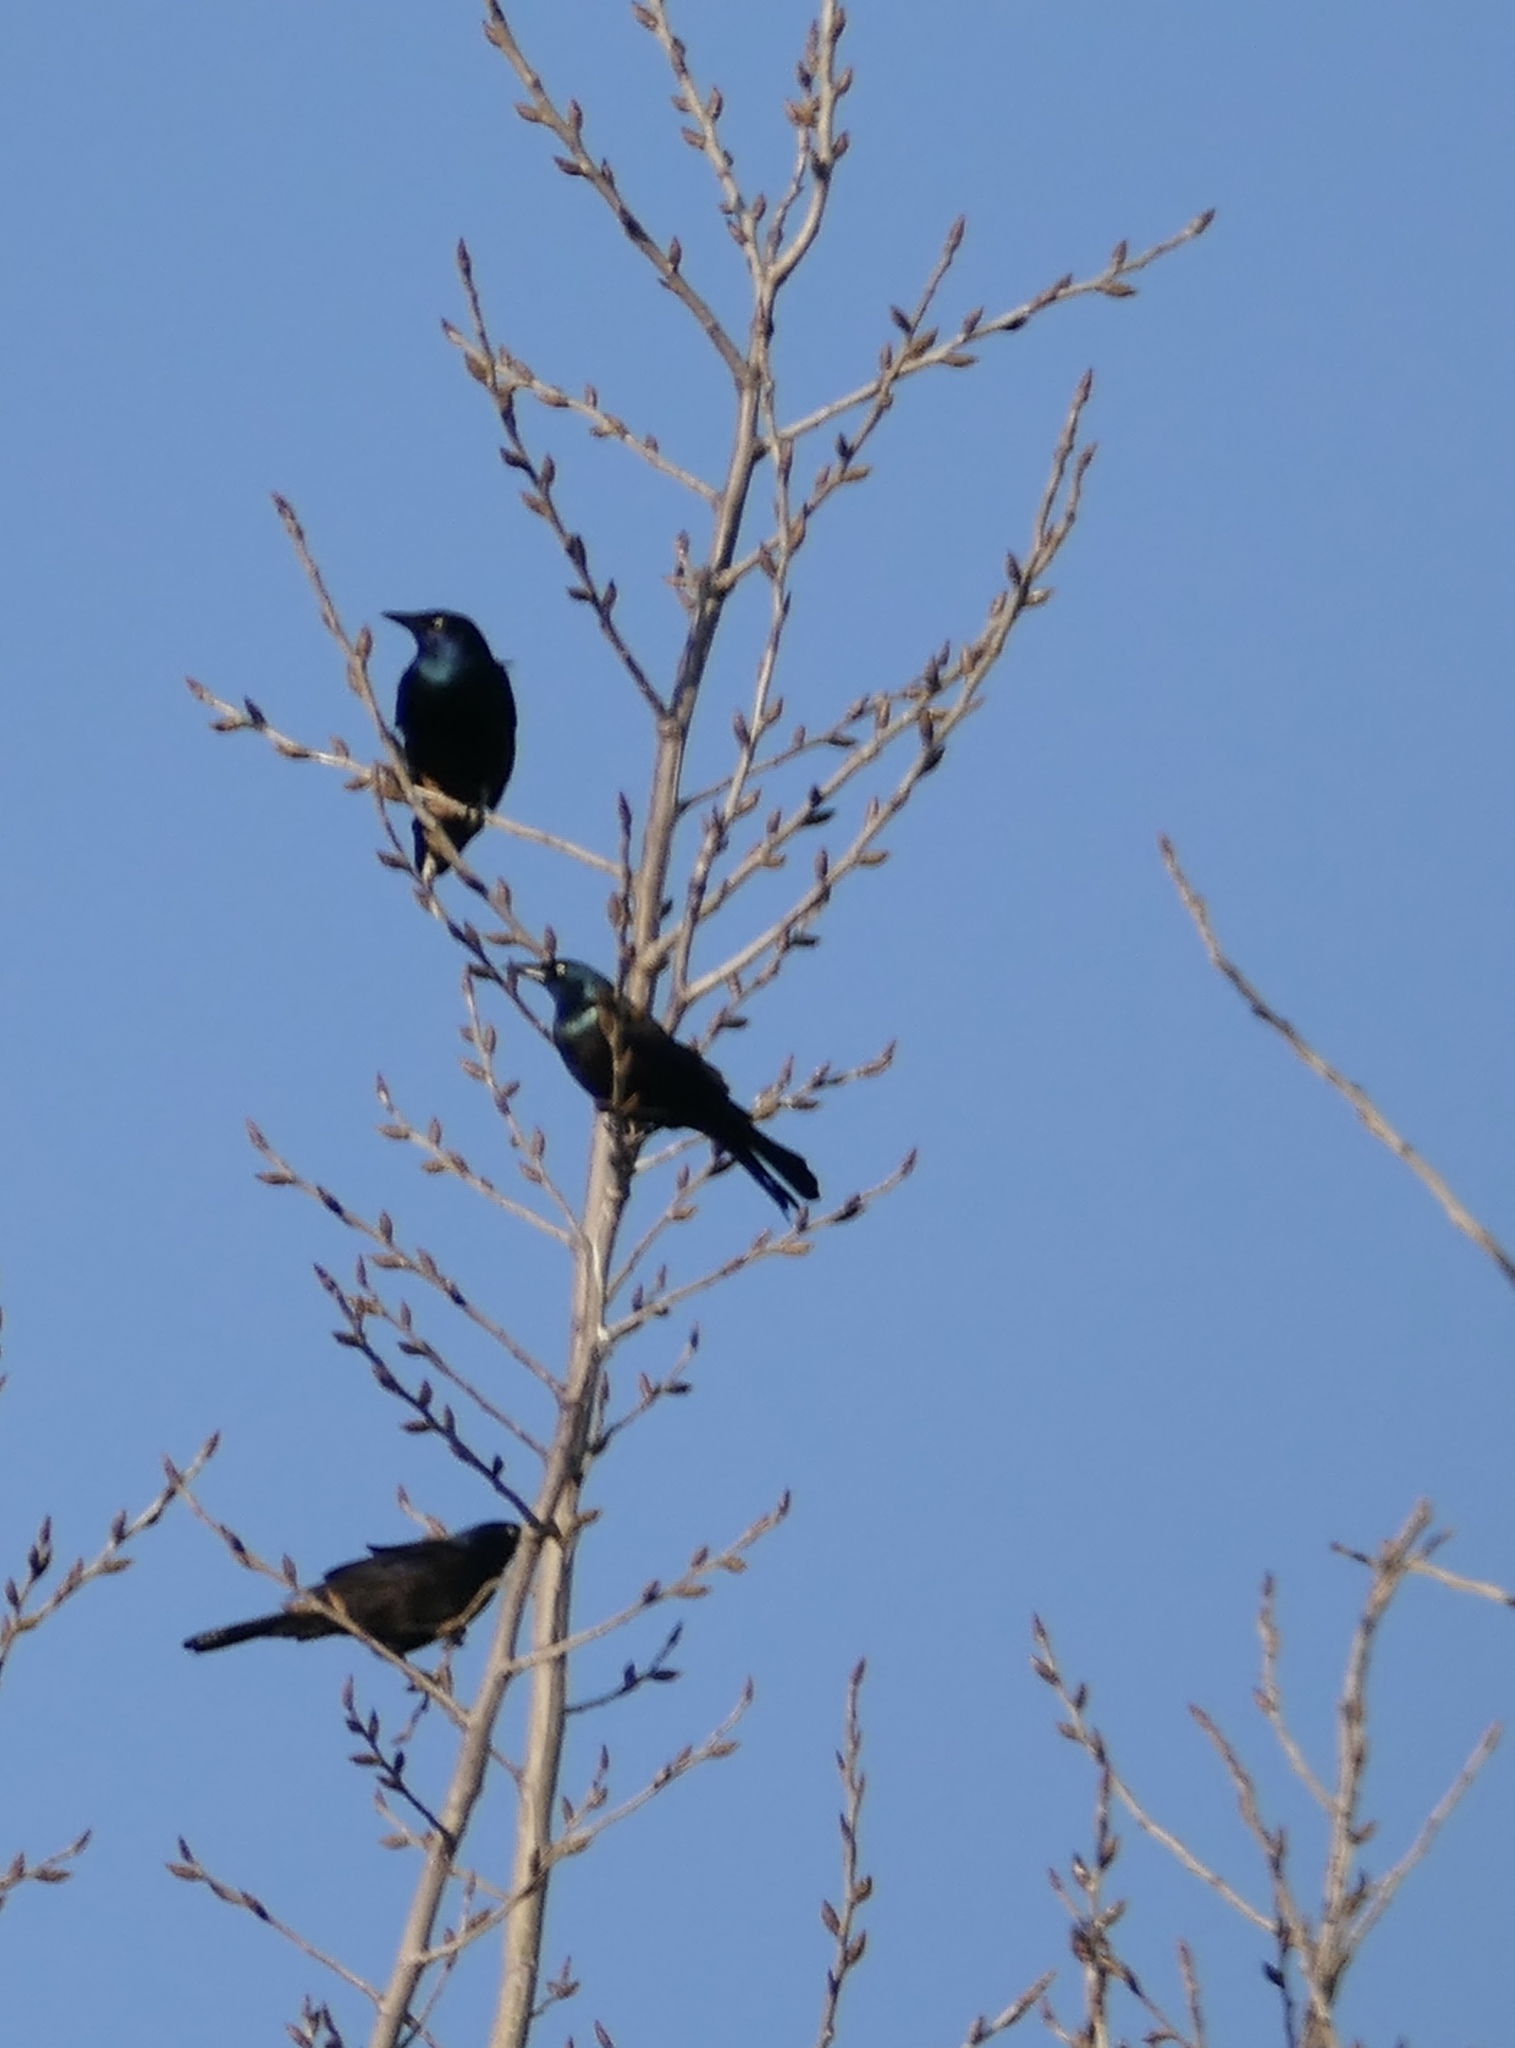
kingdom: Animalia
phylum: Chordata
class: Aves
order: Passeriformes
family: Icteridae
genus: Quiscalus
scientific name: Quiscalus quiscula
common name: Common grackle
